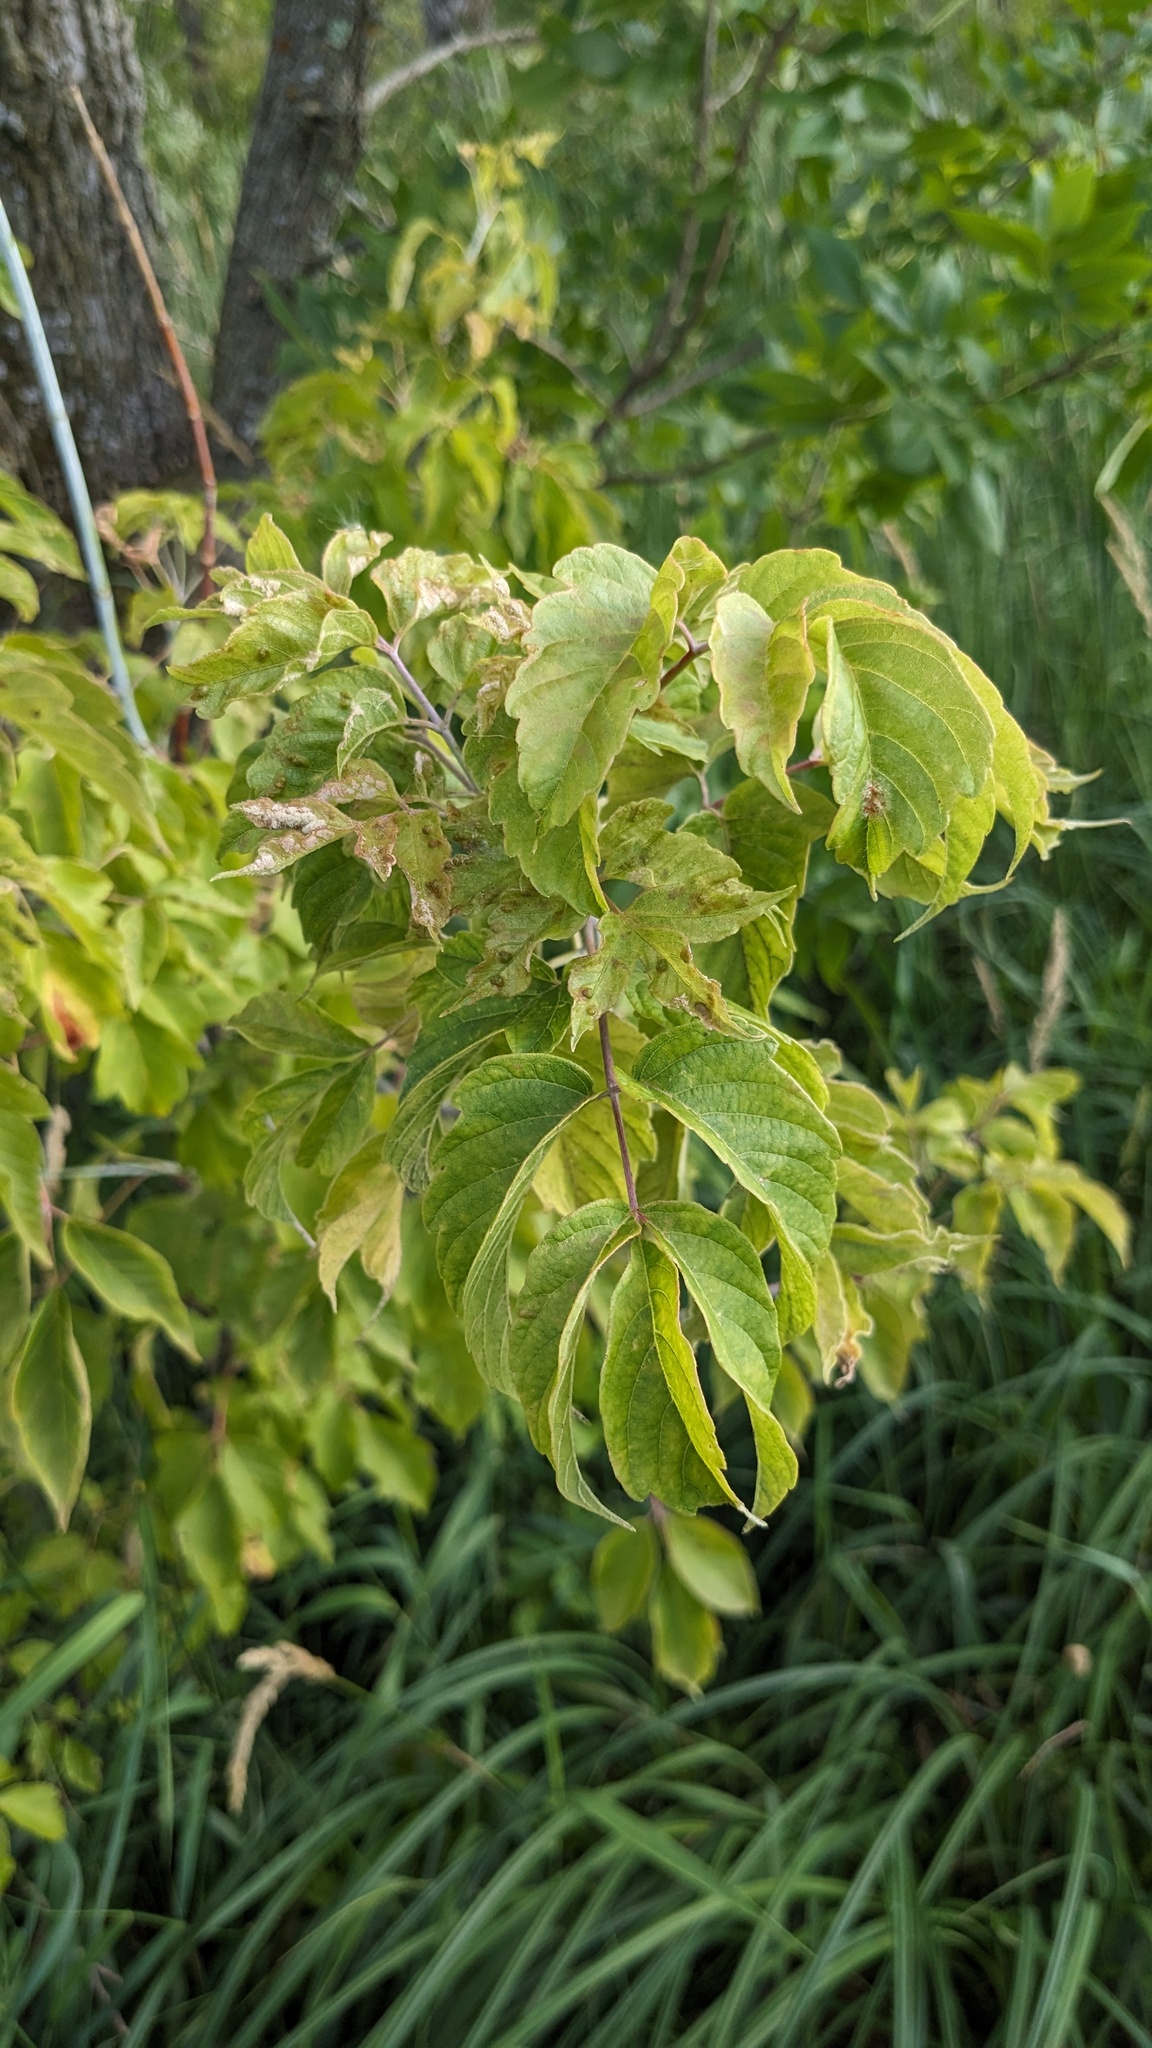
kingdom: Plantae
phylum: Tracheophyta
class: Magnoliopsida
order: Sapindales
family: Sapindaceae
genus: Acer
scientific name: Acer negundo
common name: Ashleaf maple
